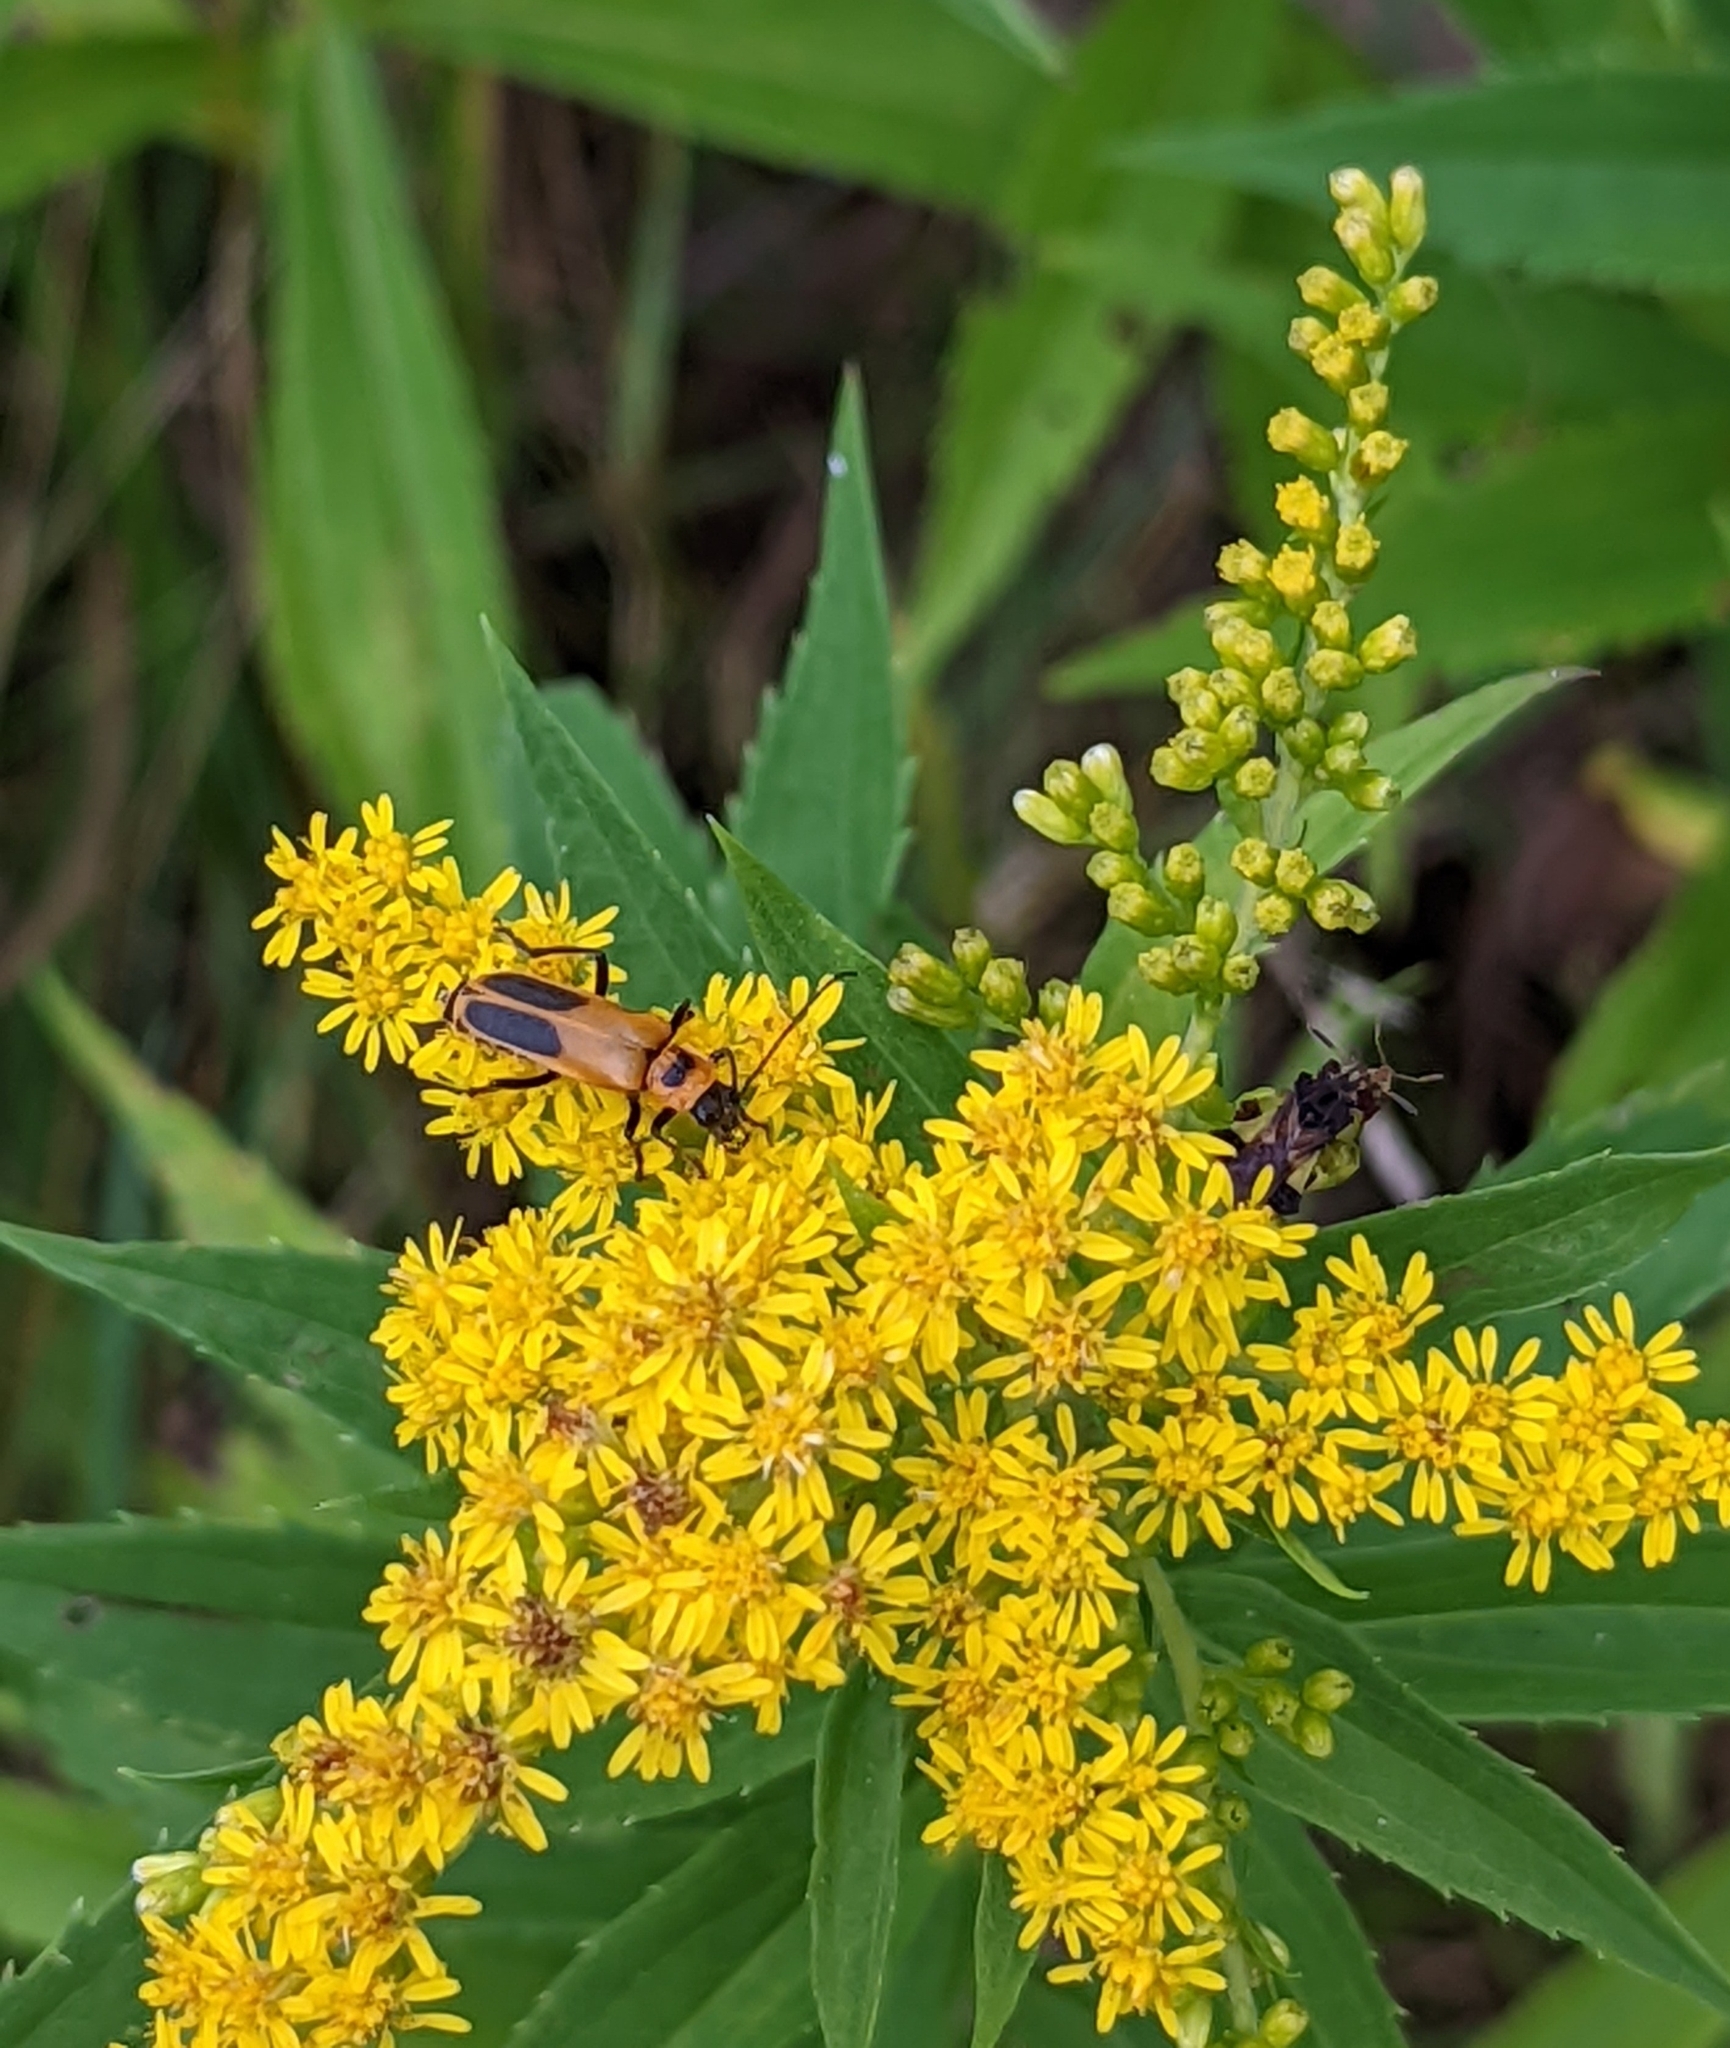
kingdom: Animalia
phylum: Arthropoda
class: Insecta
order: Coleoptera
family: Cantharidae
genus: Chauliognathus
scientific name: Chauliognathus pensylvanicus
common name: Goldenrod soldier beetle
